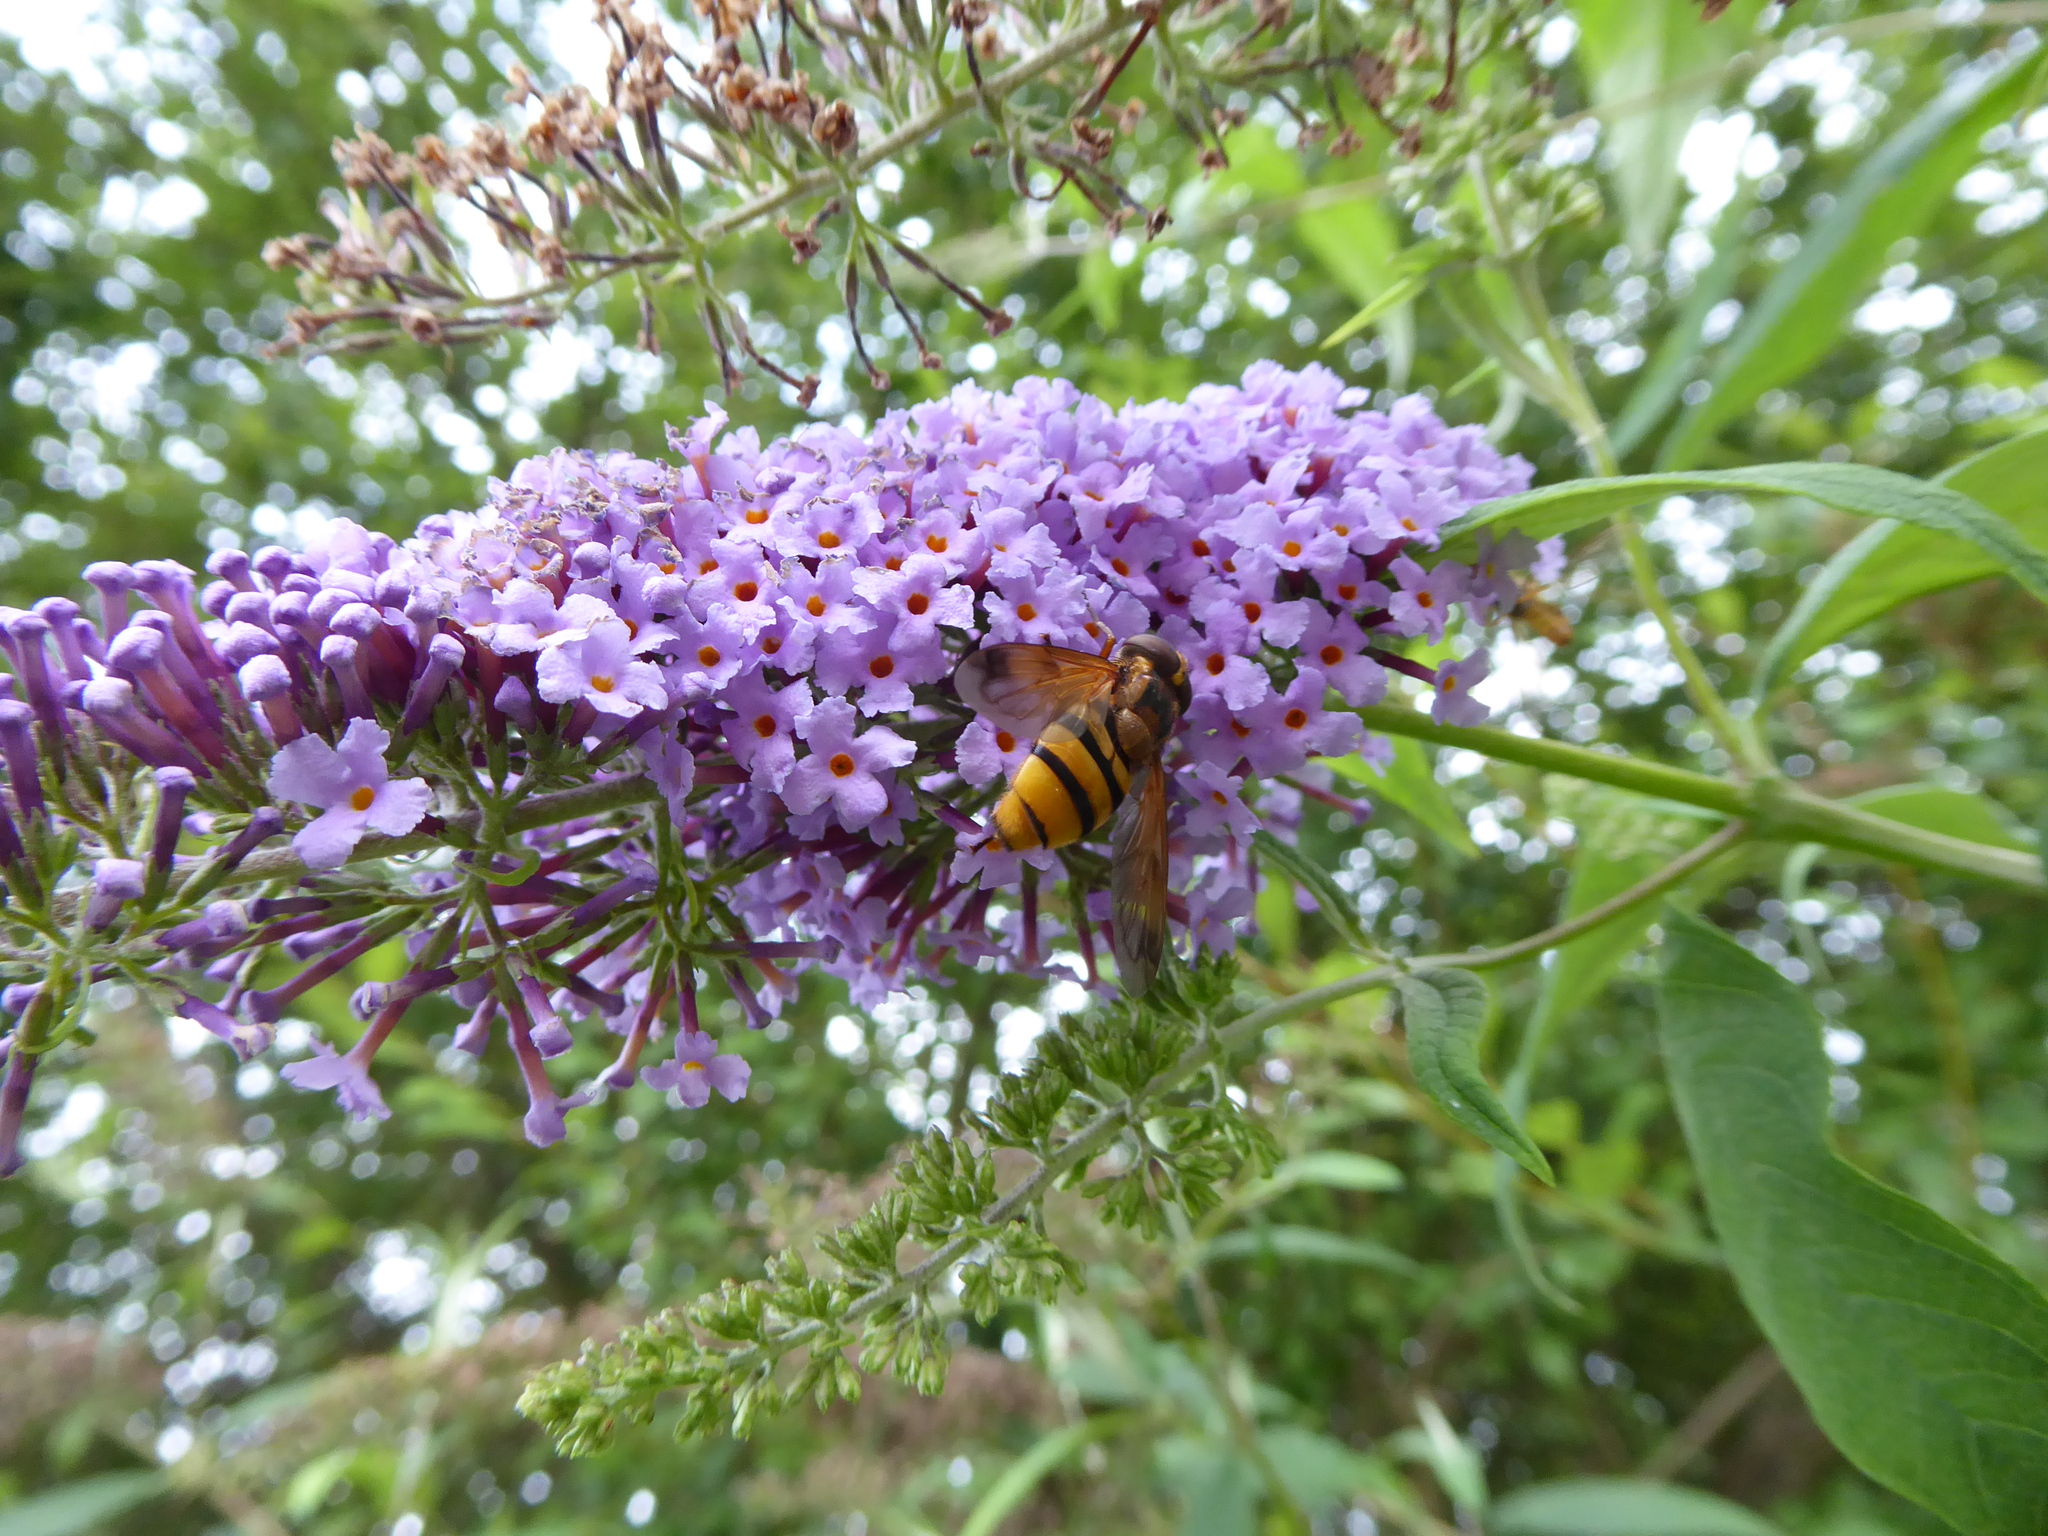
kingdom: Animalia
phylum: Arthropoda
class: Insecta
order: Diptera
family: Syrphidae
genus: Volucella
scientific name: Volucella inanis
